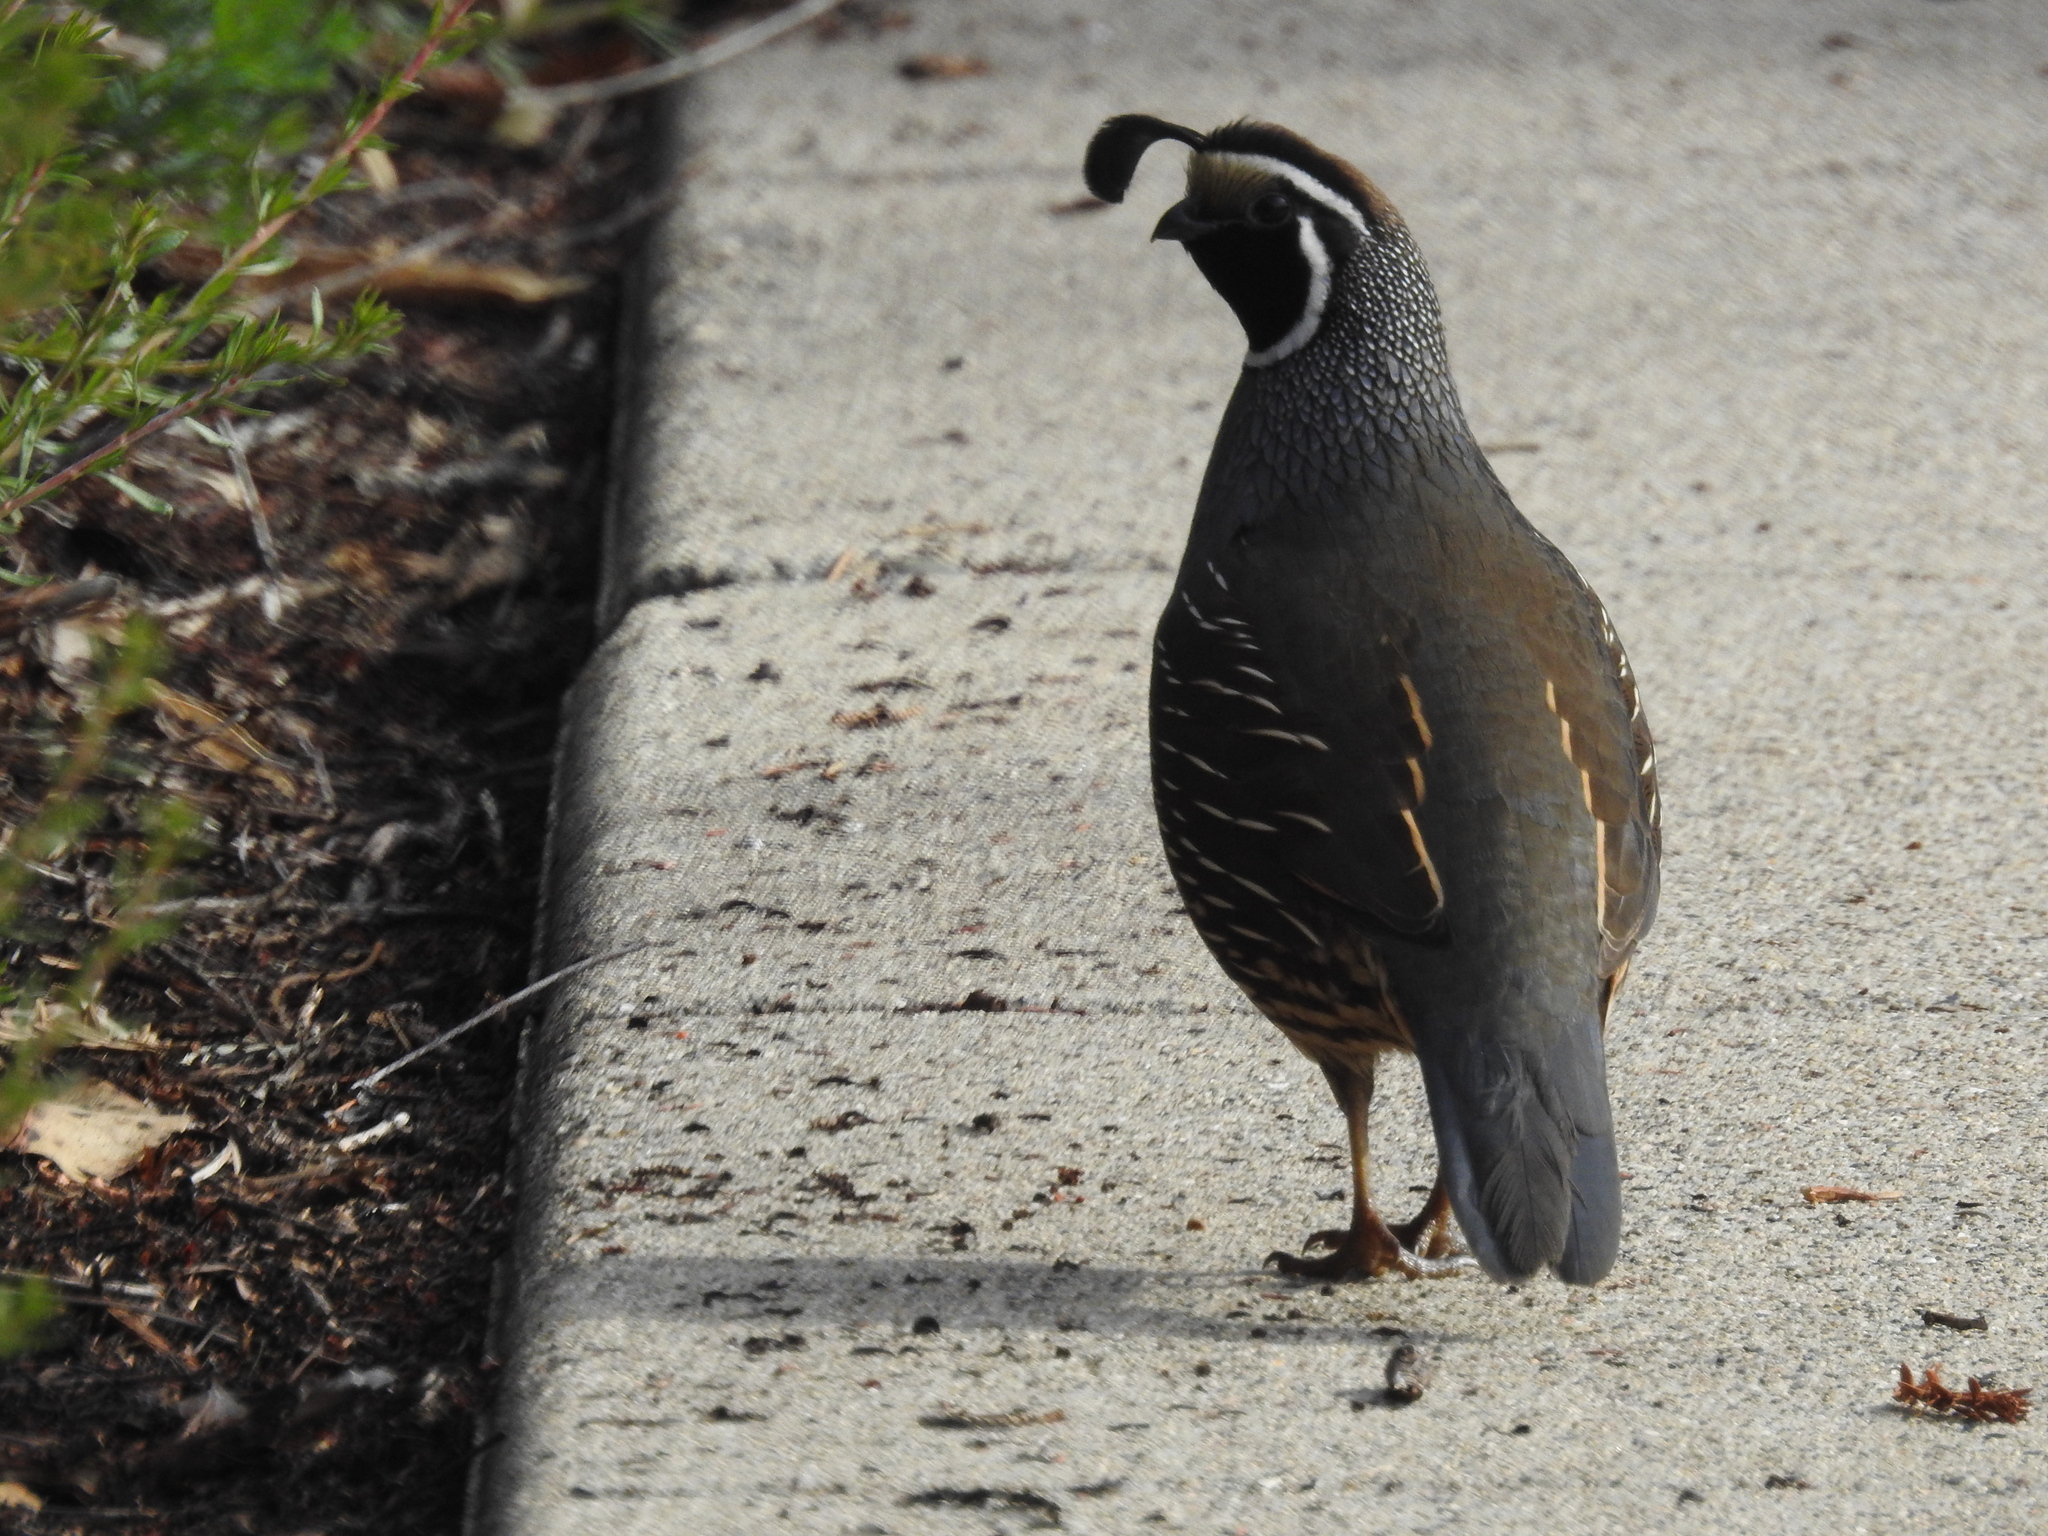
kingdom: Animalia
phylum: Chordata
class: Aves
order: Galliformes
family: Odontophoridae
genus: Callipepla
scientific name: Callipepla californica
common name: California quail
